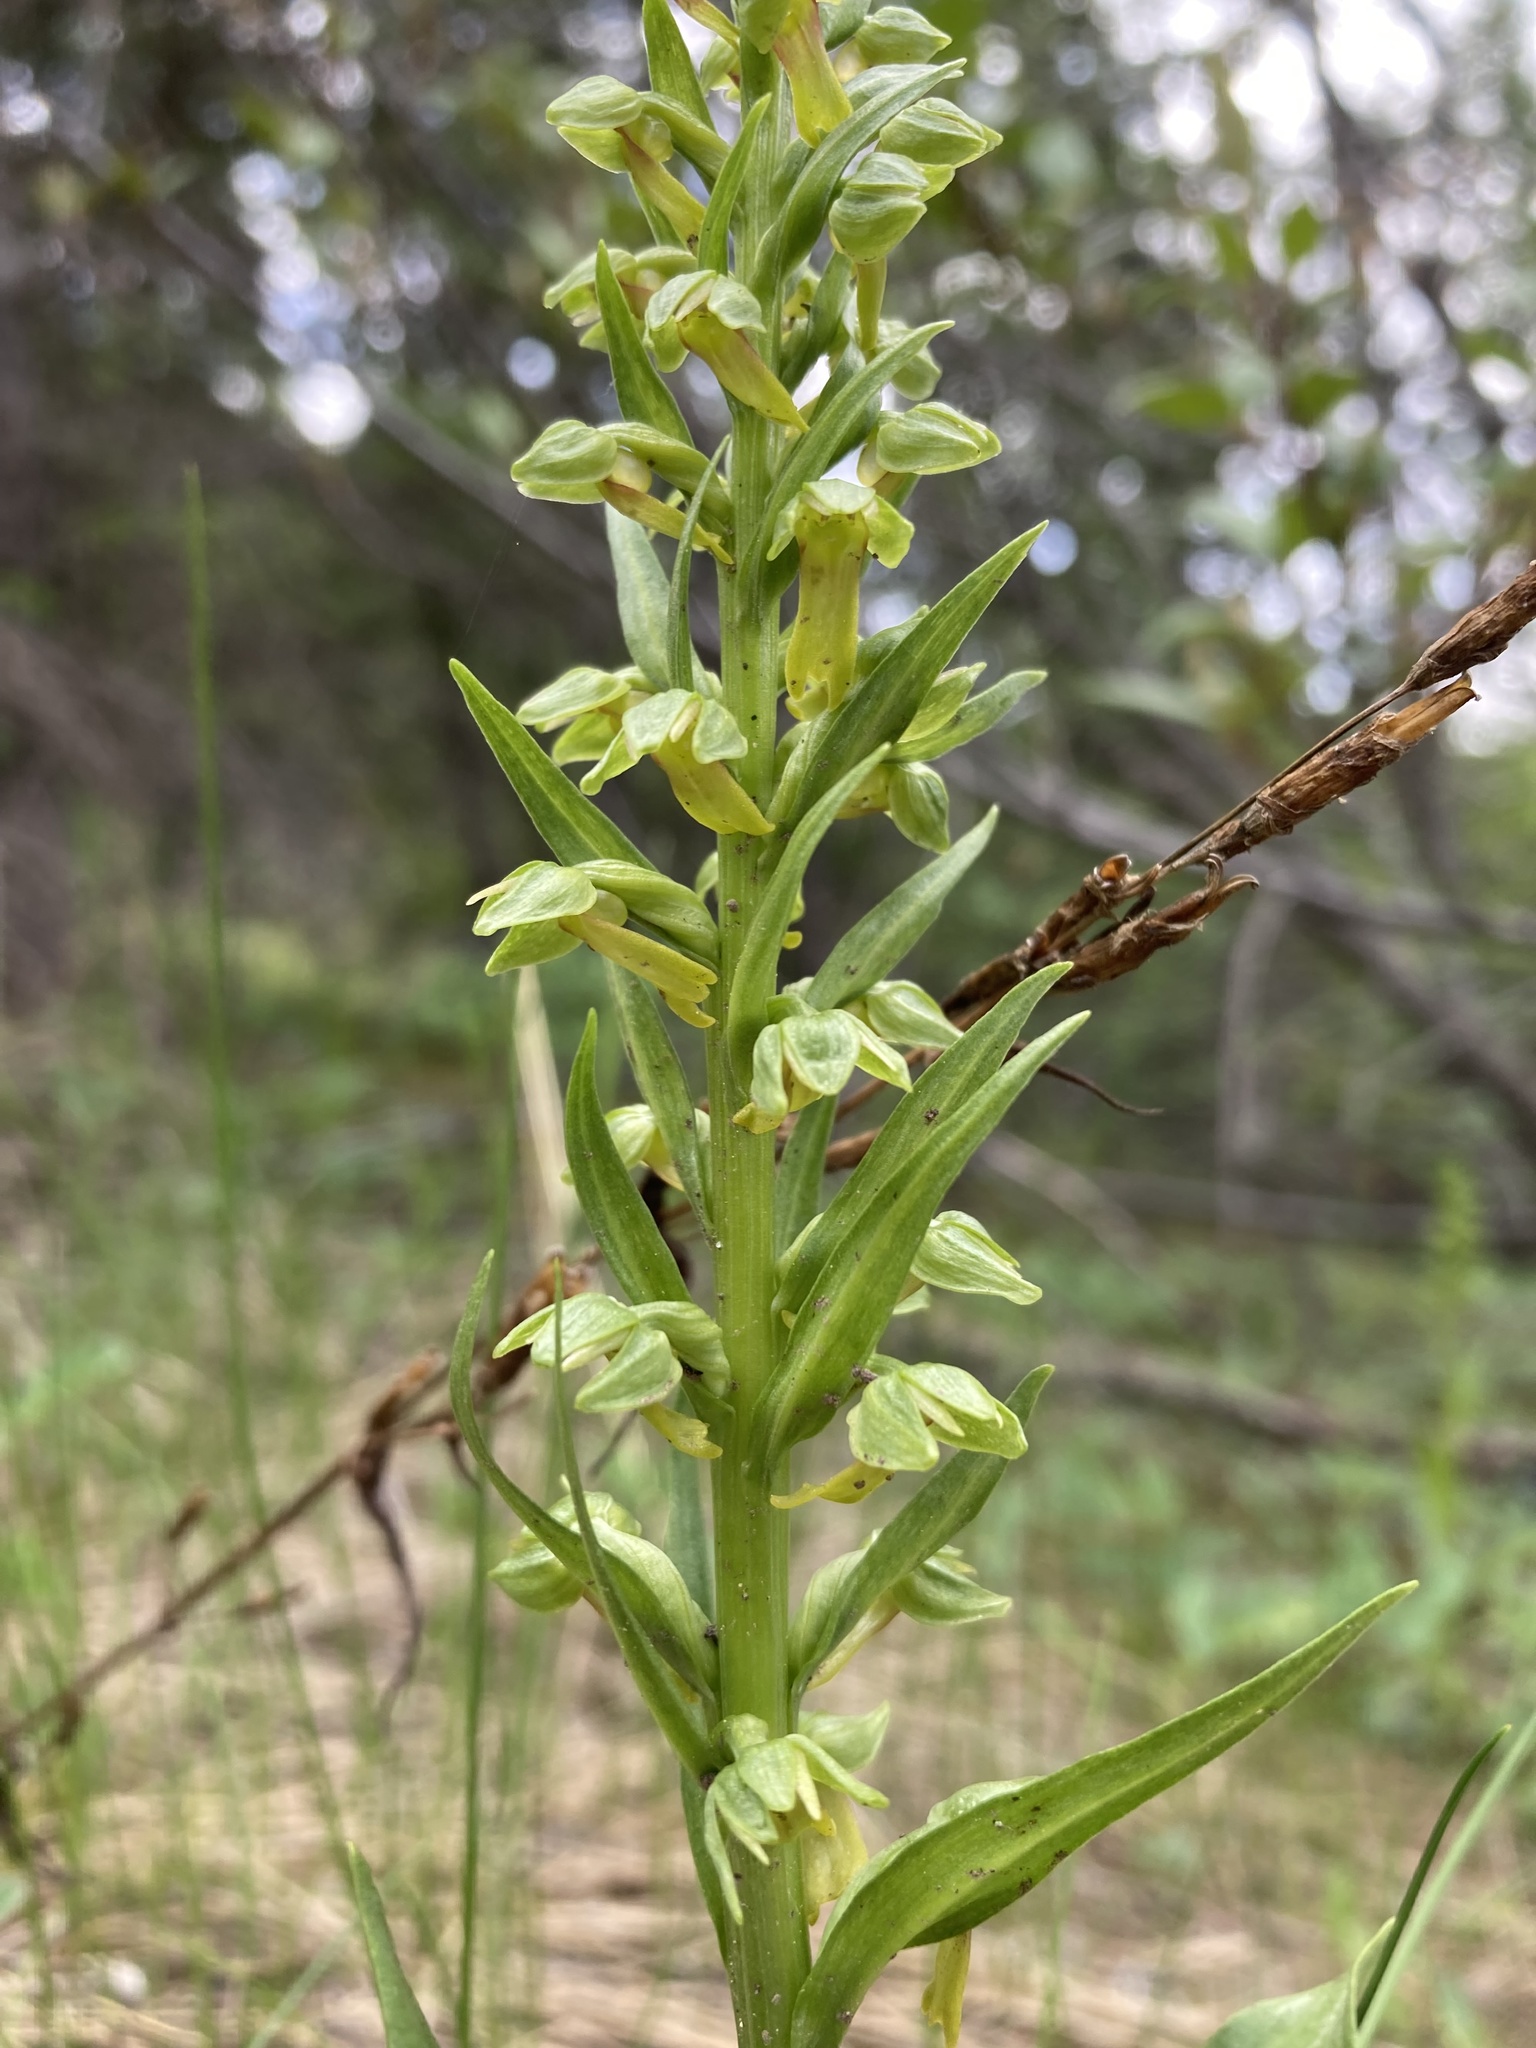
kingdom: Plantae
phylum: Tracheophyta
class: Liliopsida
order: Asparagales
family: Orchidaceae
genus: Dactylorhiza
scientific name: Dactylorhiza viridis
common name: Longbract frog orchid
